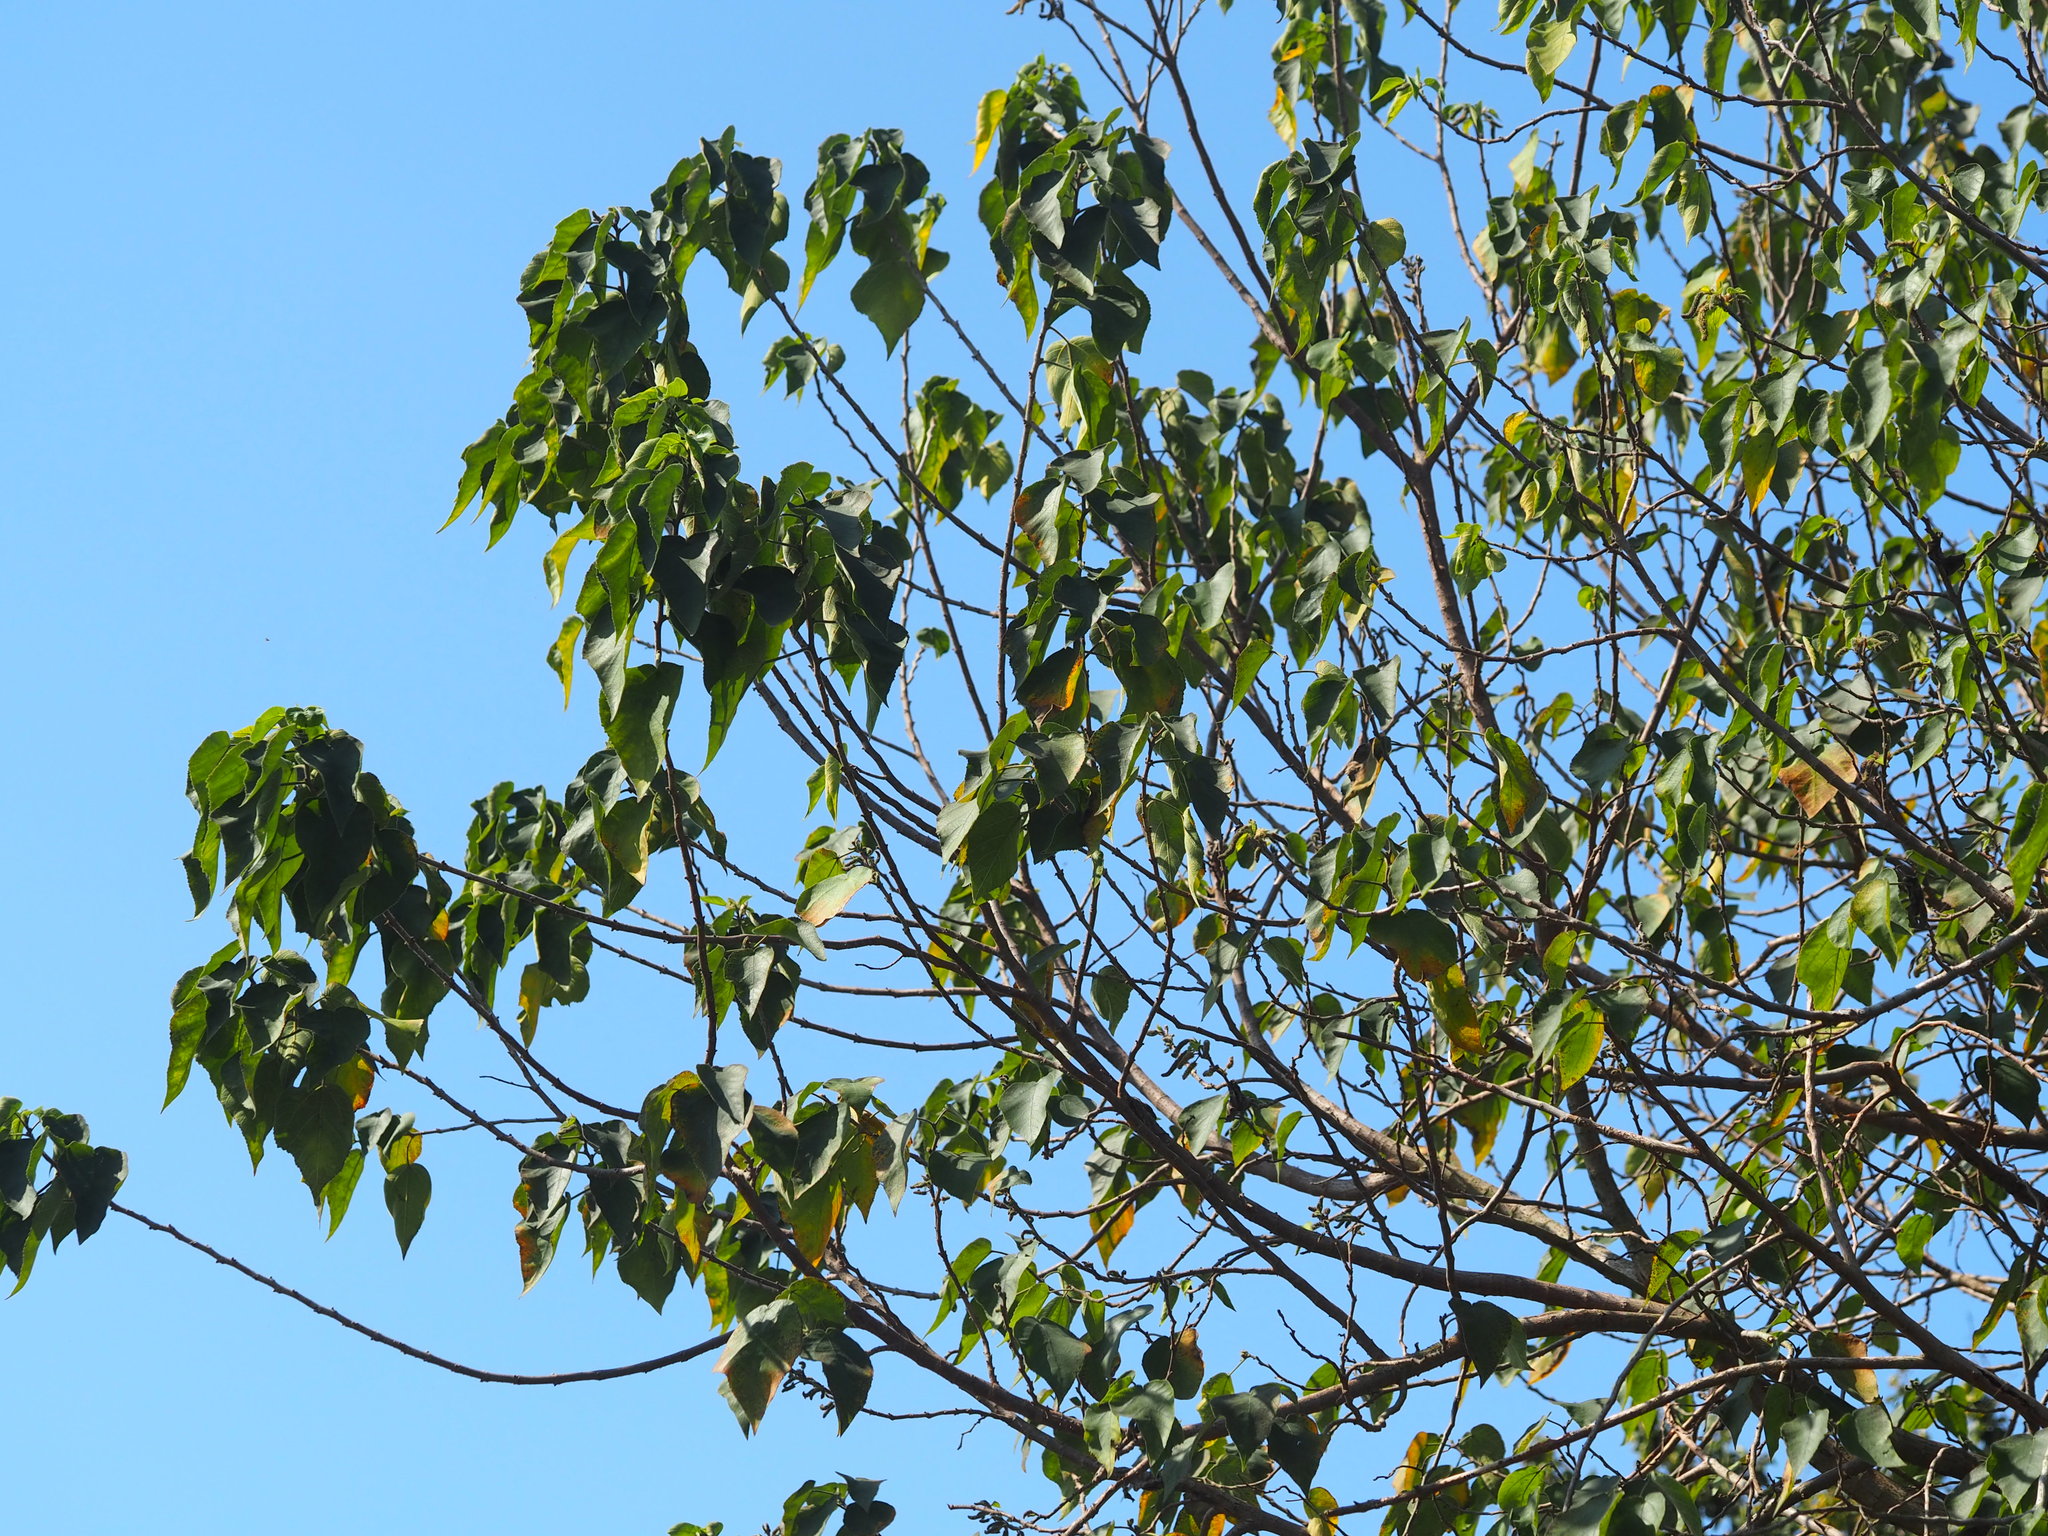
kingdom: Plantae
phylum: Tracheophyta
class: Magnoliopsida
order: Rosales
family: Moraceae
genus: Broussonetia
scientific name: Broussonetia papyrifera
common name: Paper mulberry
